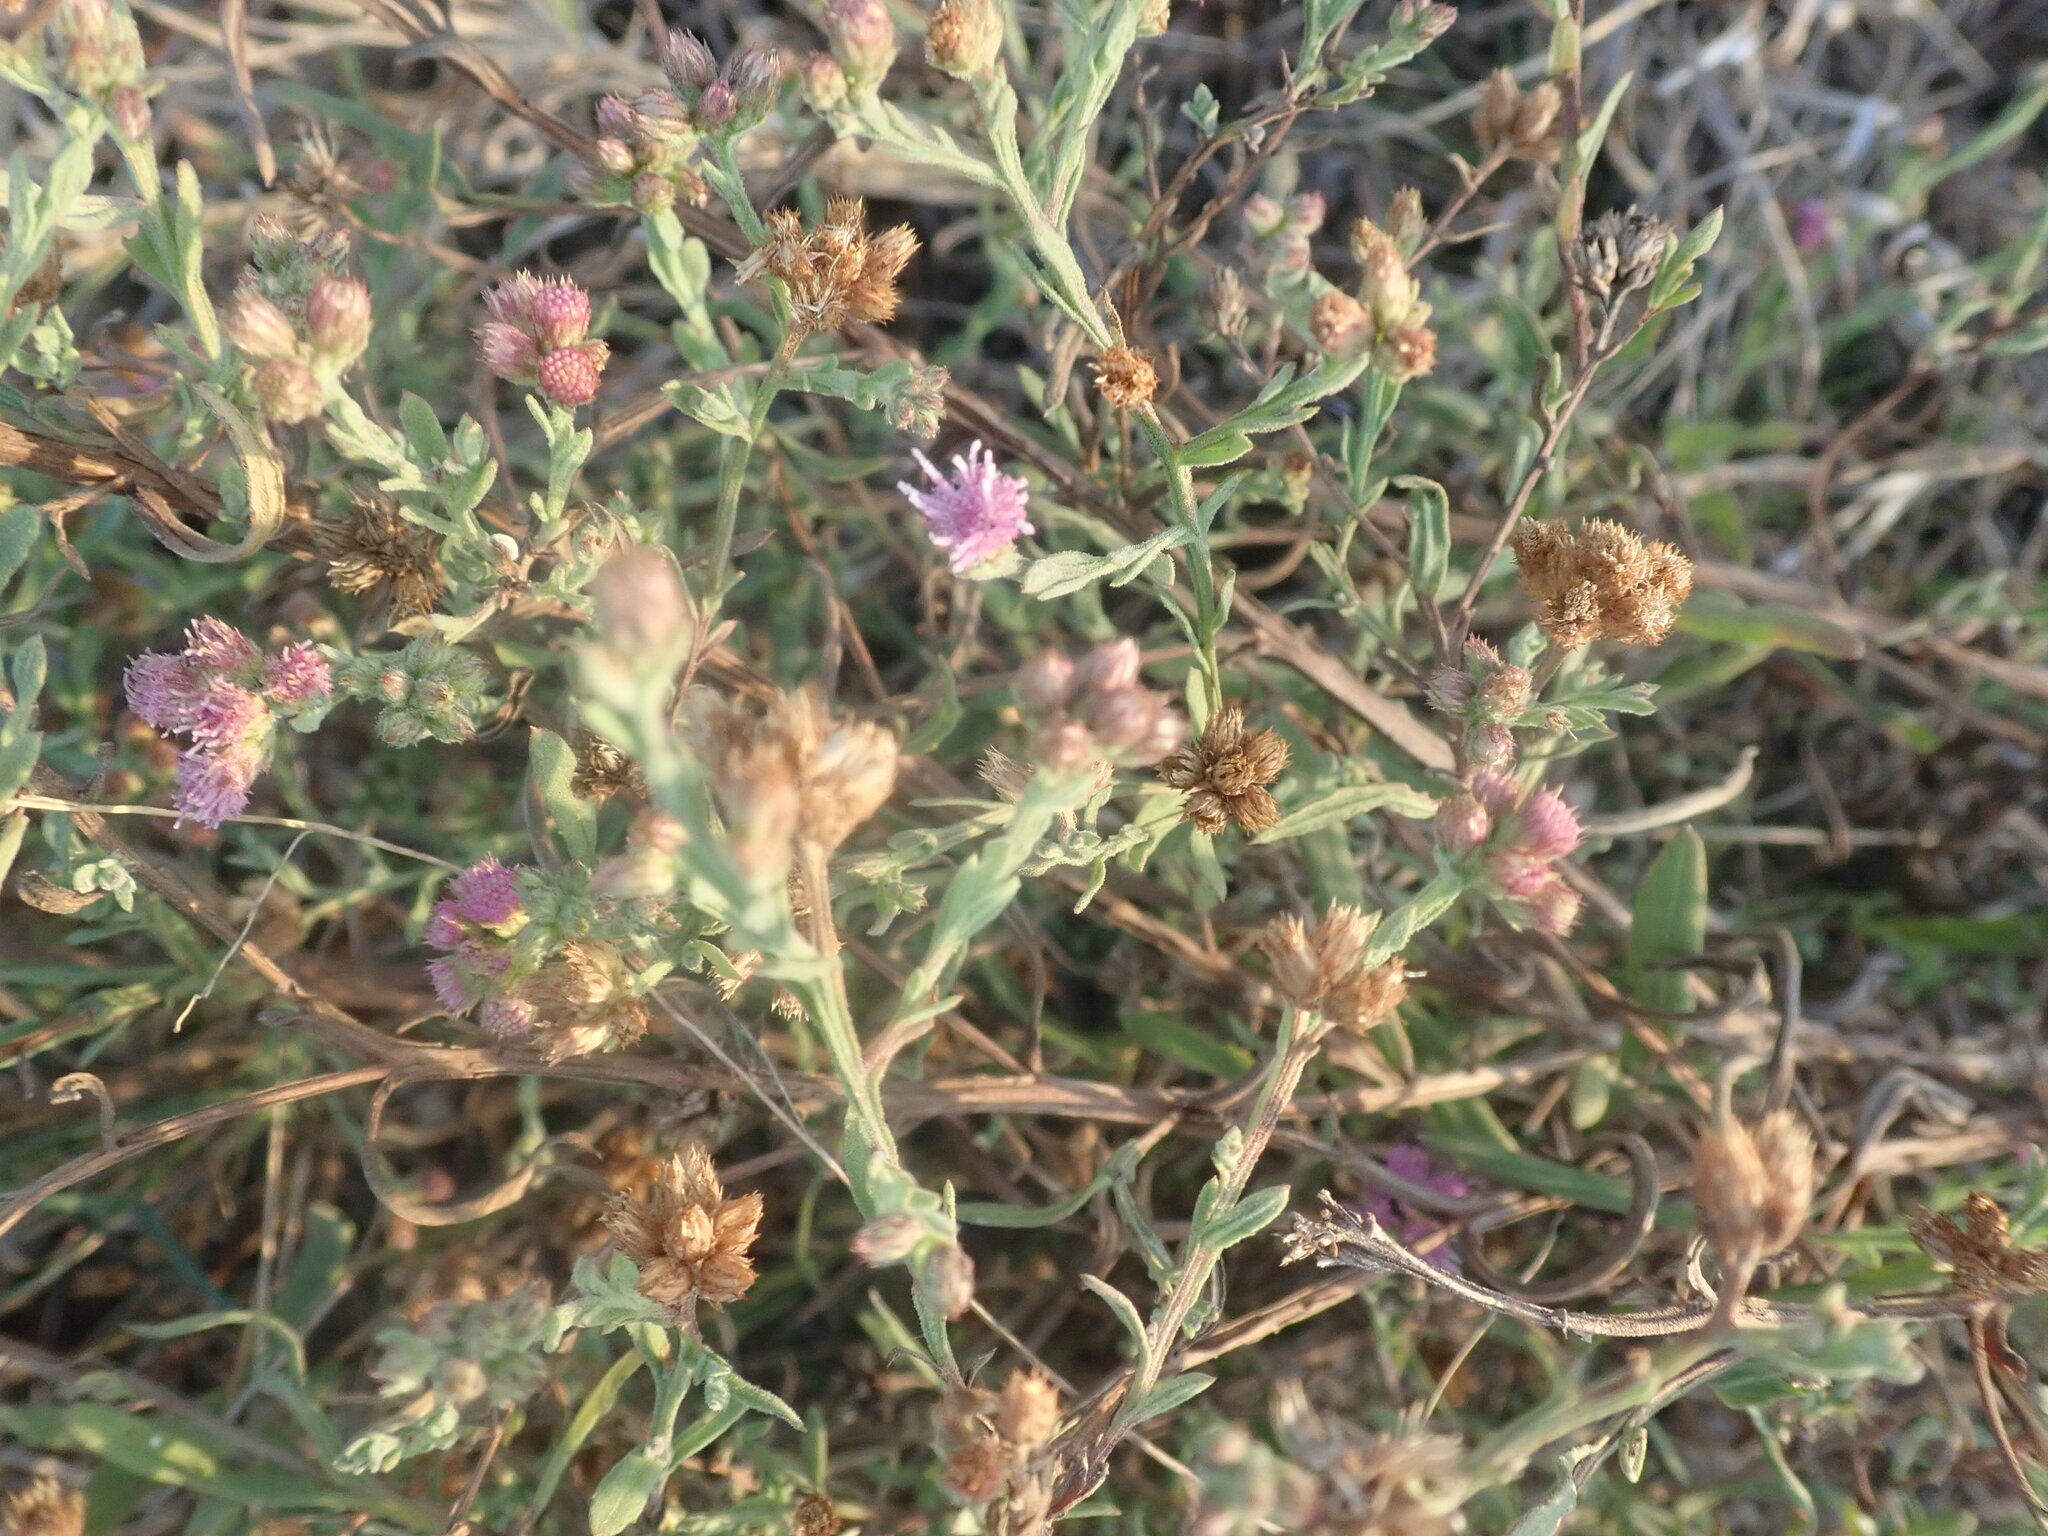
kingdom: Plantae
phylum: Tracheophyta
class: Magnoliopsida
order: Asterales
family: Asteraceae
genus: Litogyne
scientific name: Litogyne gariepina
